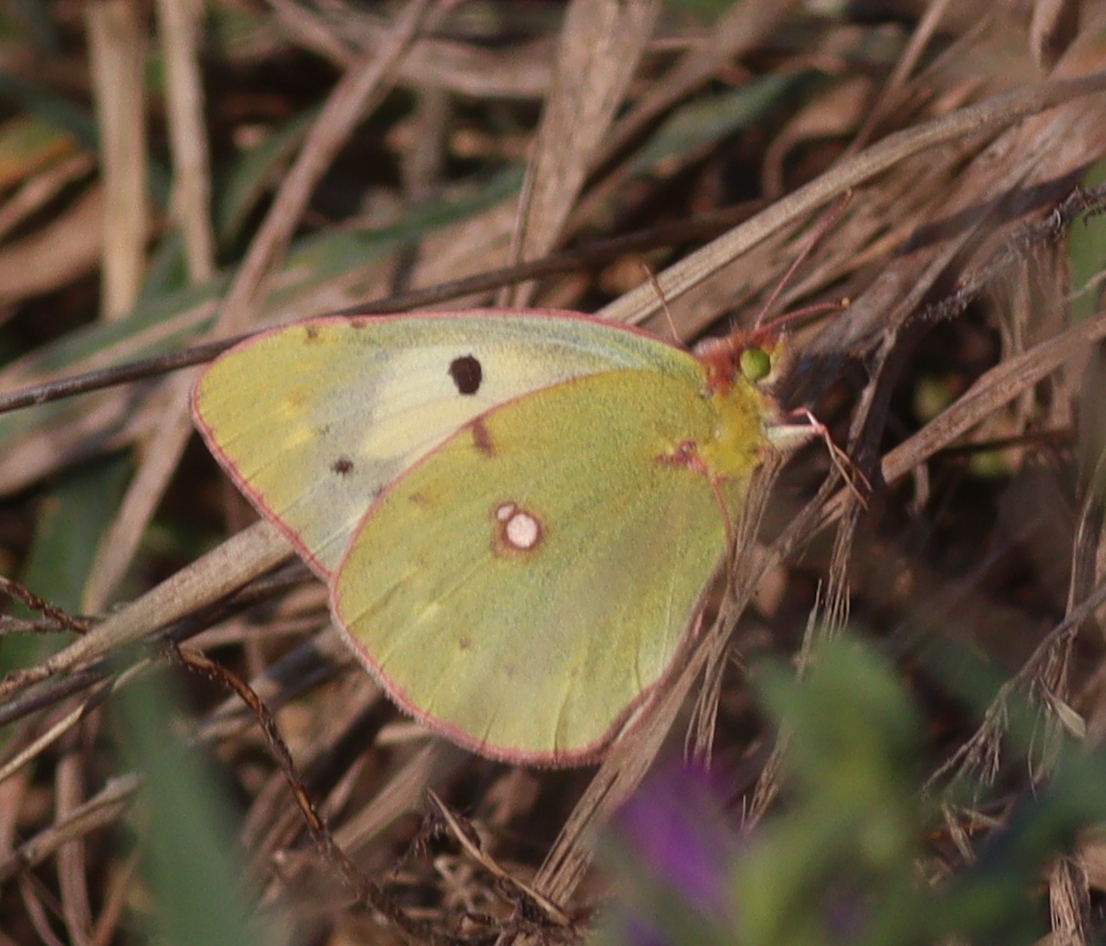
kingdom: Animalia
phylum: Arthropoda
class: Insecta
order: Lepidoptera
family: Pieridae
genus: Colias
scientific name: Colias croceus
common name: Clouded yellow
